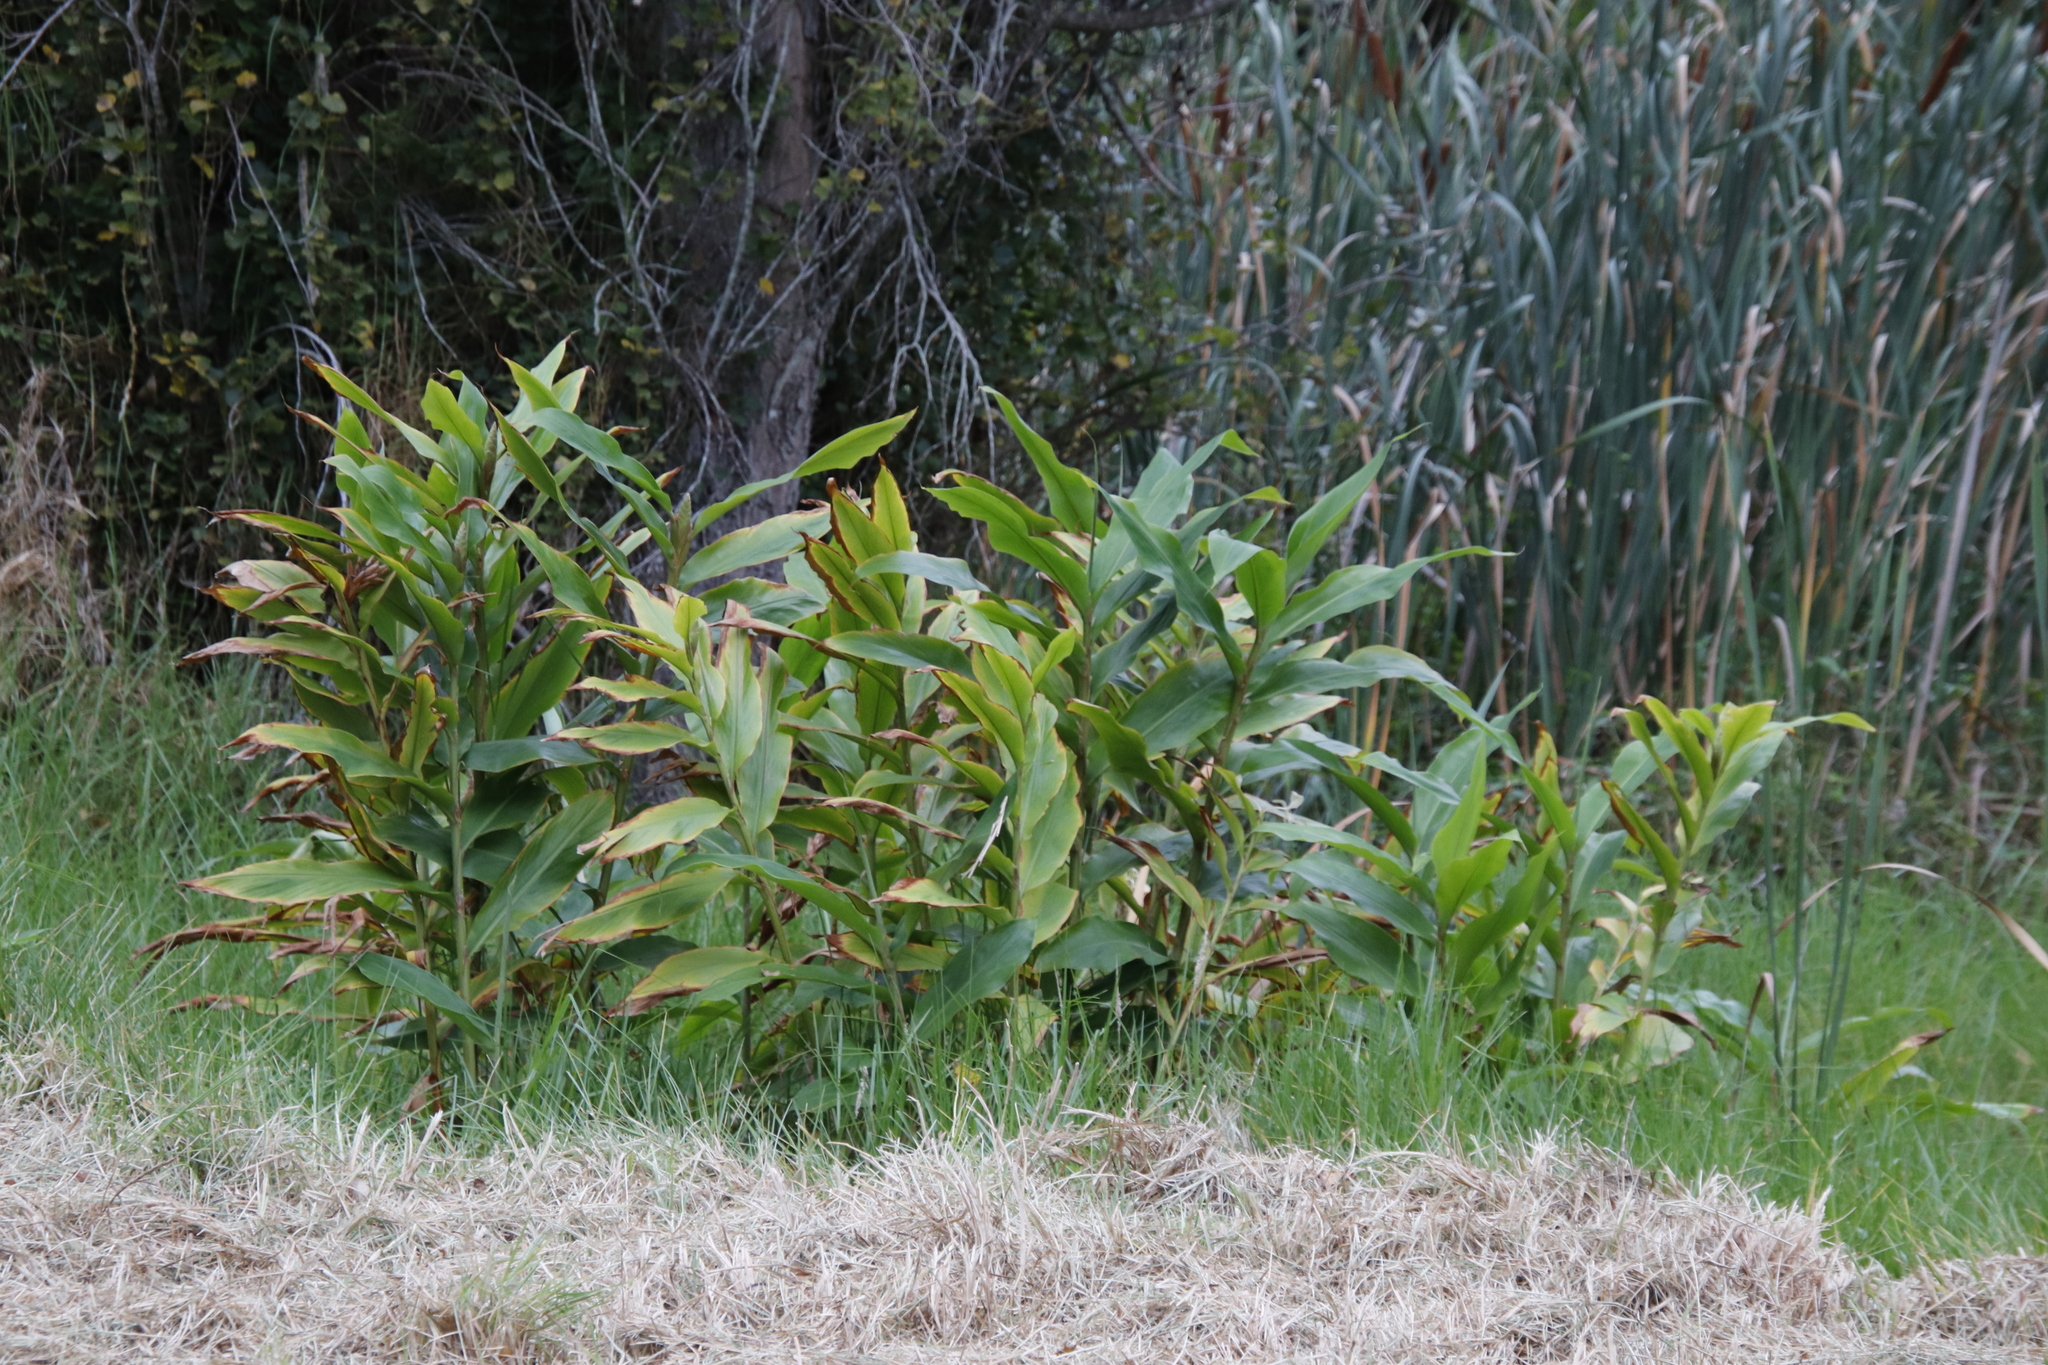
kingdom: Plantae
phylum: Tracheophyta
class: Liliopsida
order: Zingiberales
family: Zingiberaceae
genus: Hedychium
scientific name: Hedychium flavescens
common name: Yellow ginger
